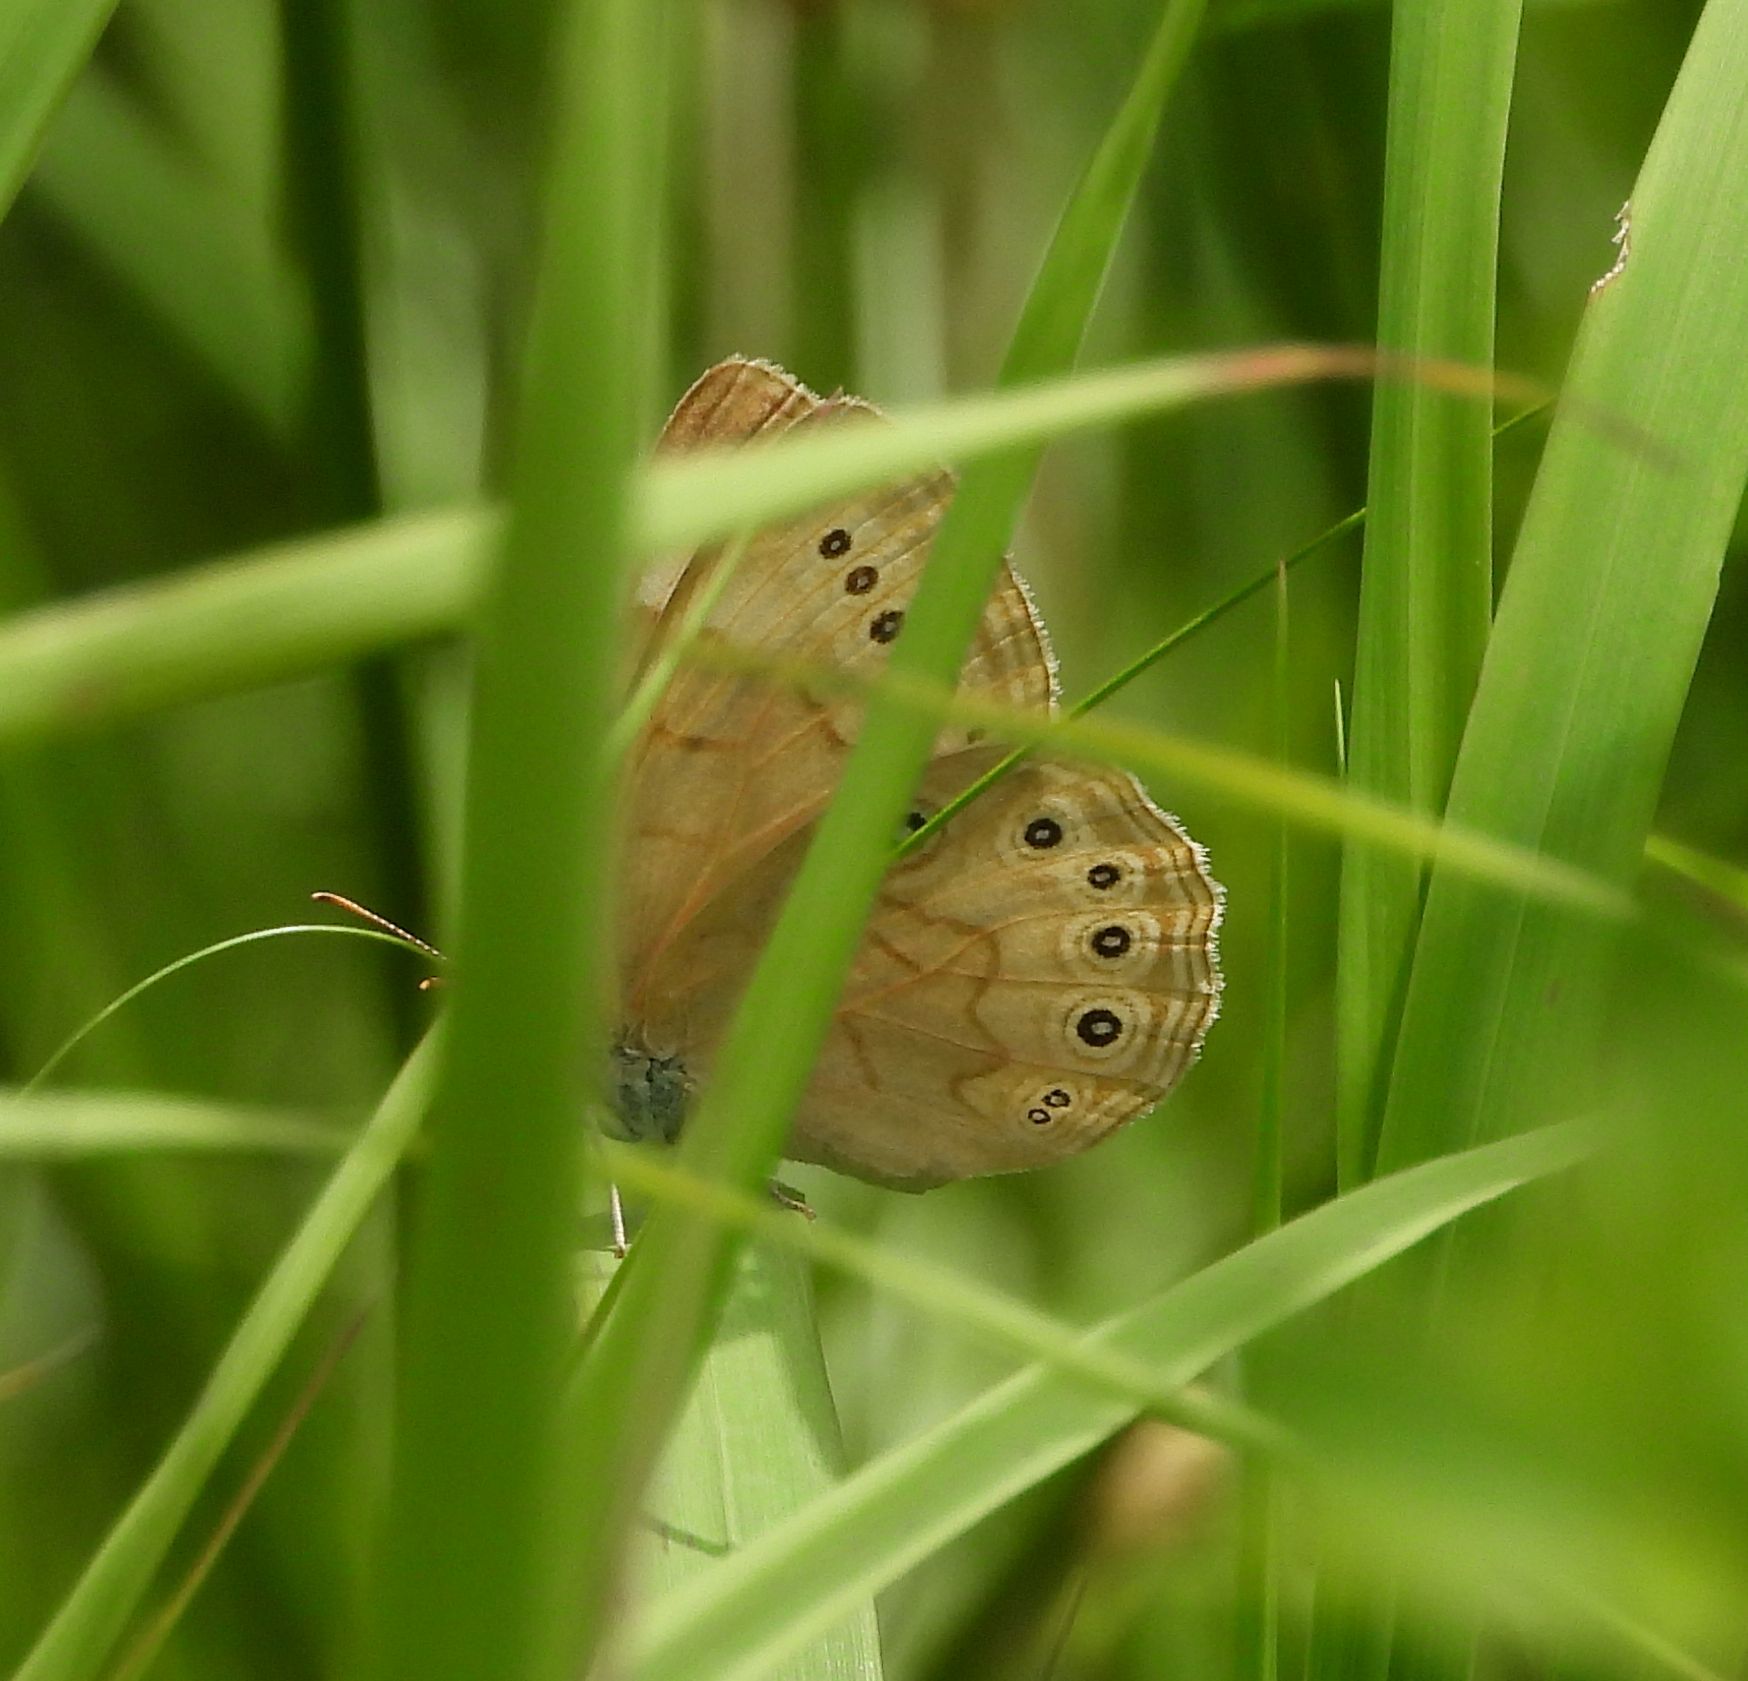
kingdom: Animalia
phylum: Arthropoda
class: Insecta
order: Lepidoptera
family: Nymphalidae
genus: Lethe
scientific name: Lethe eurydice
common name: Eyed brown
